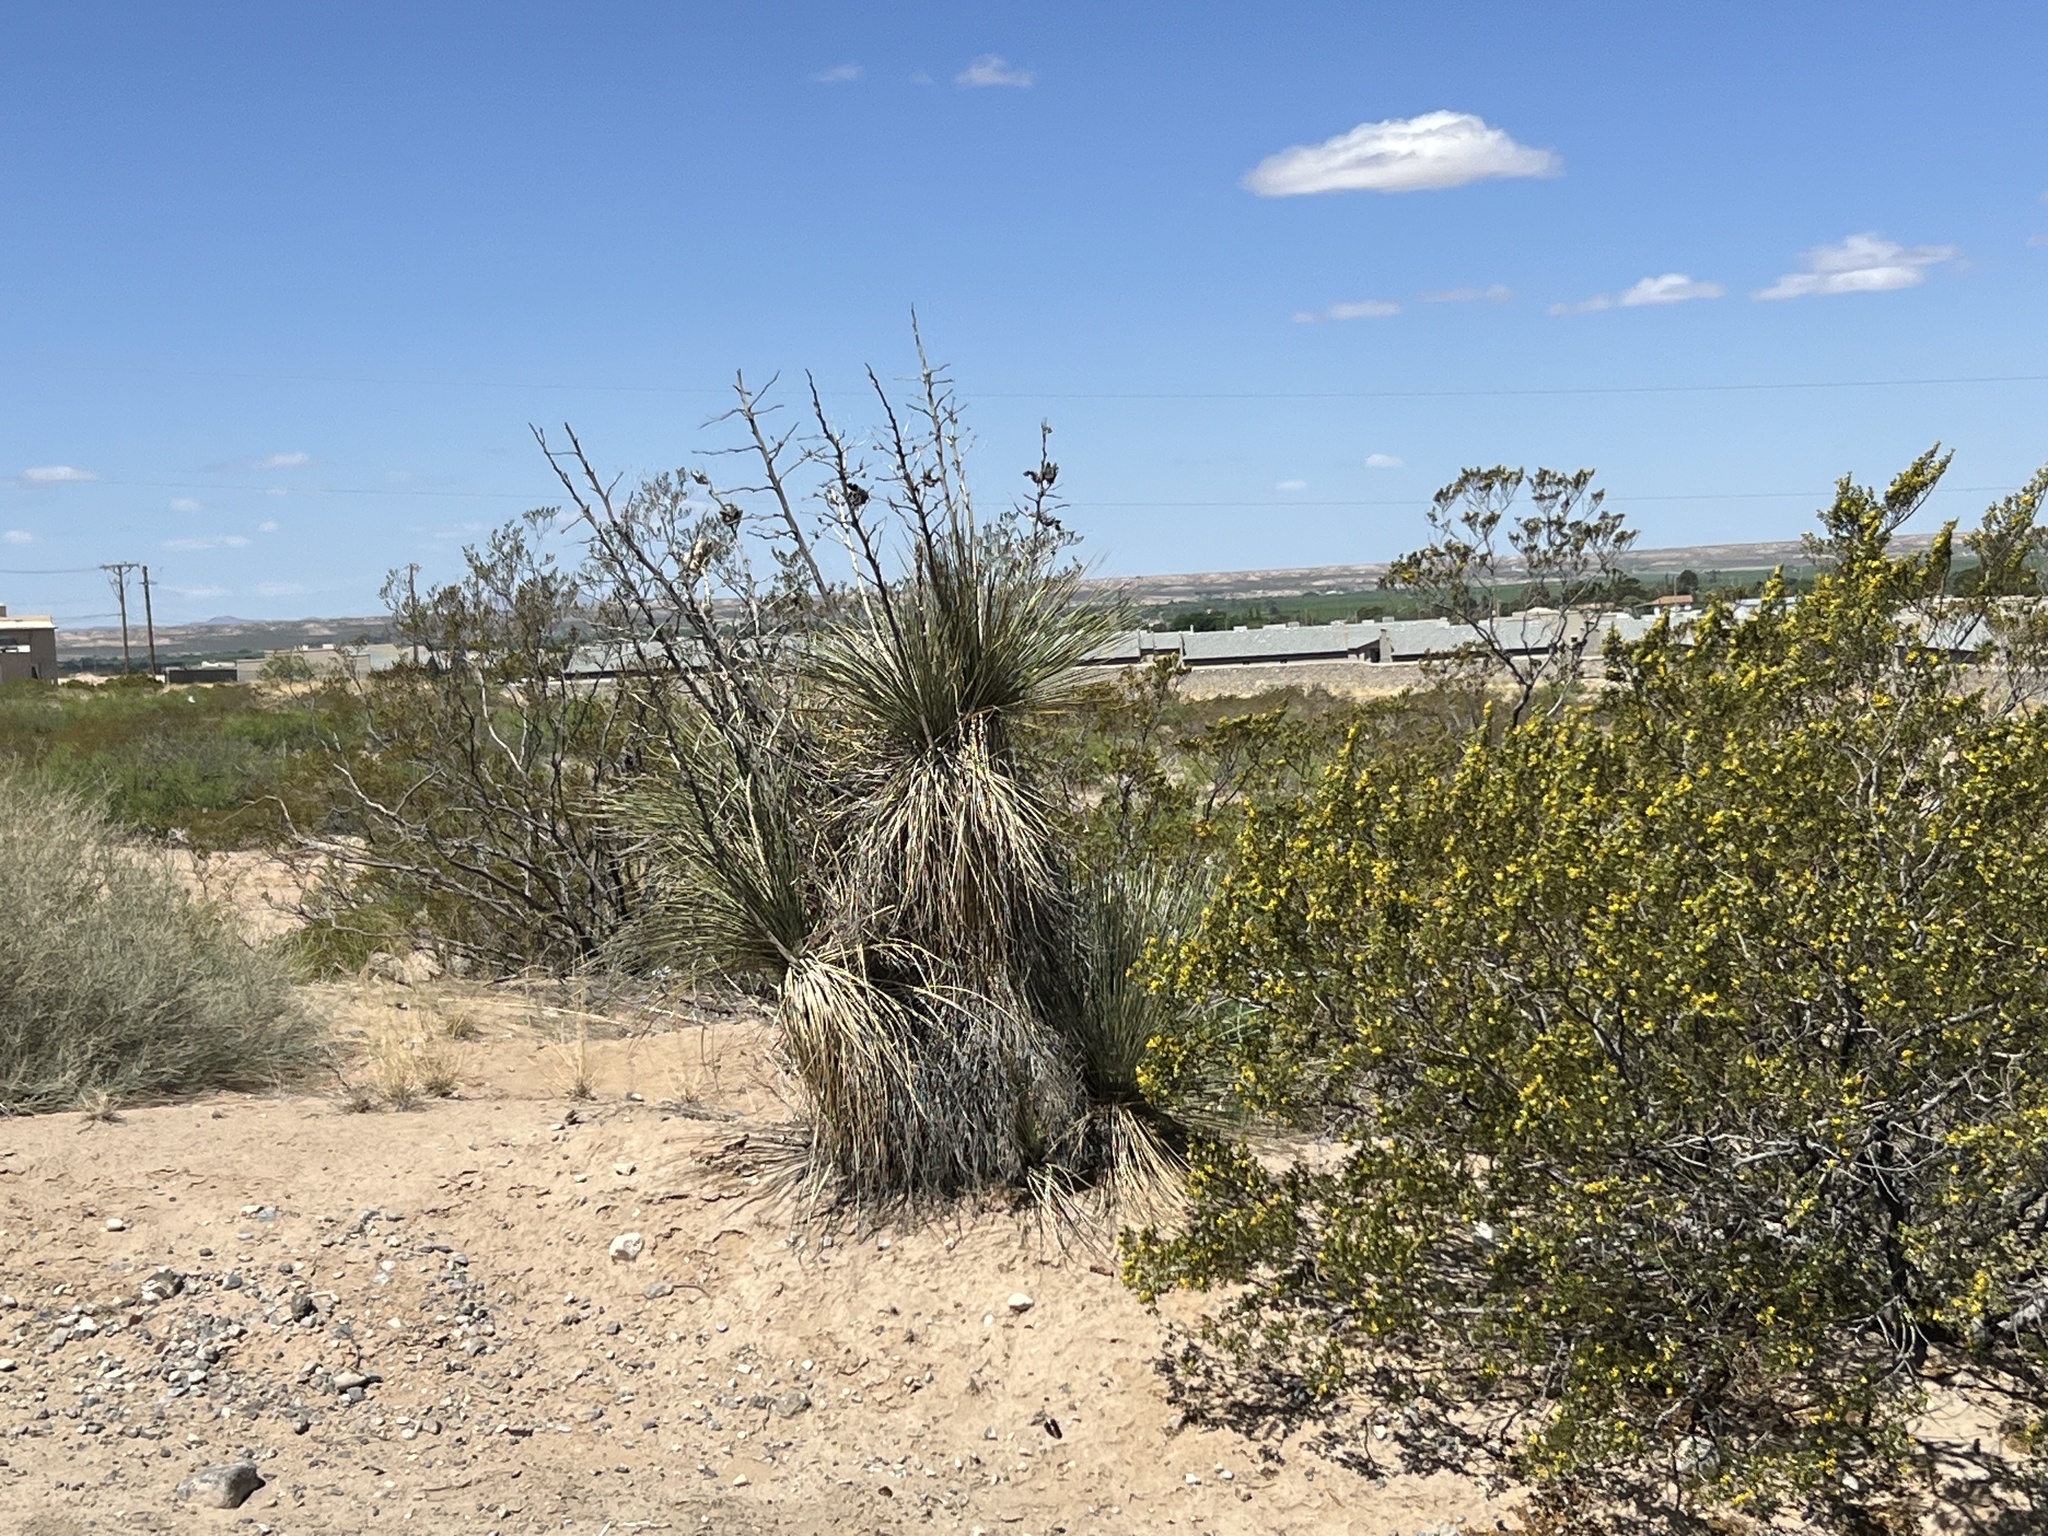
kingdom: Plantae
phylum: Tracheophyta
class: Liliopsida
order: Asparagales
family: Asparagaceae
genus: Yucca
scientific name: Yucca elata
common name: Palmella
